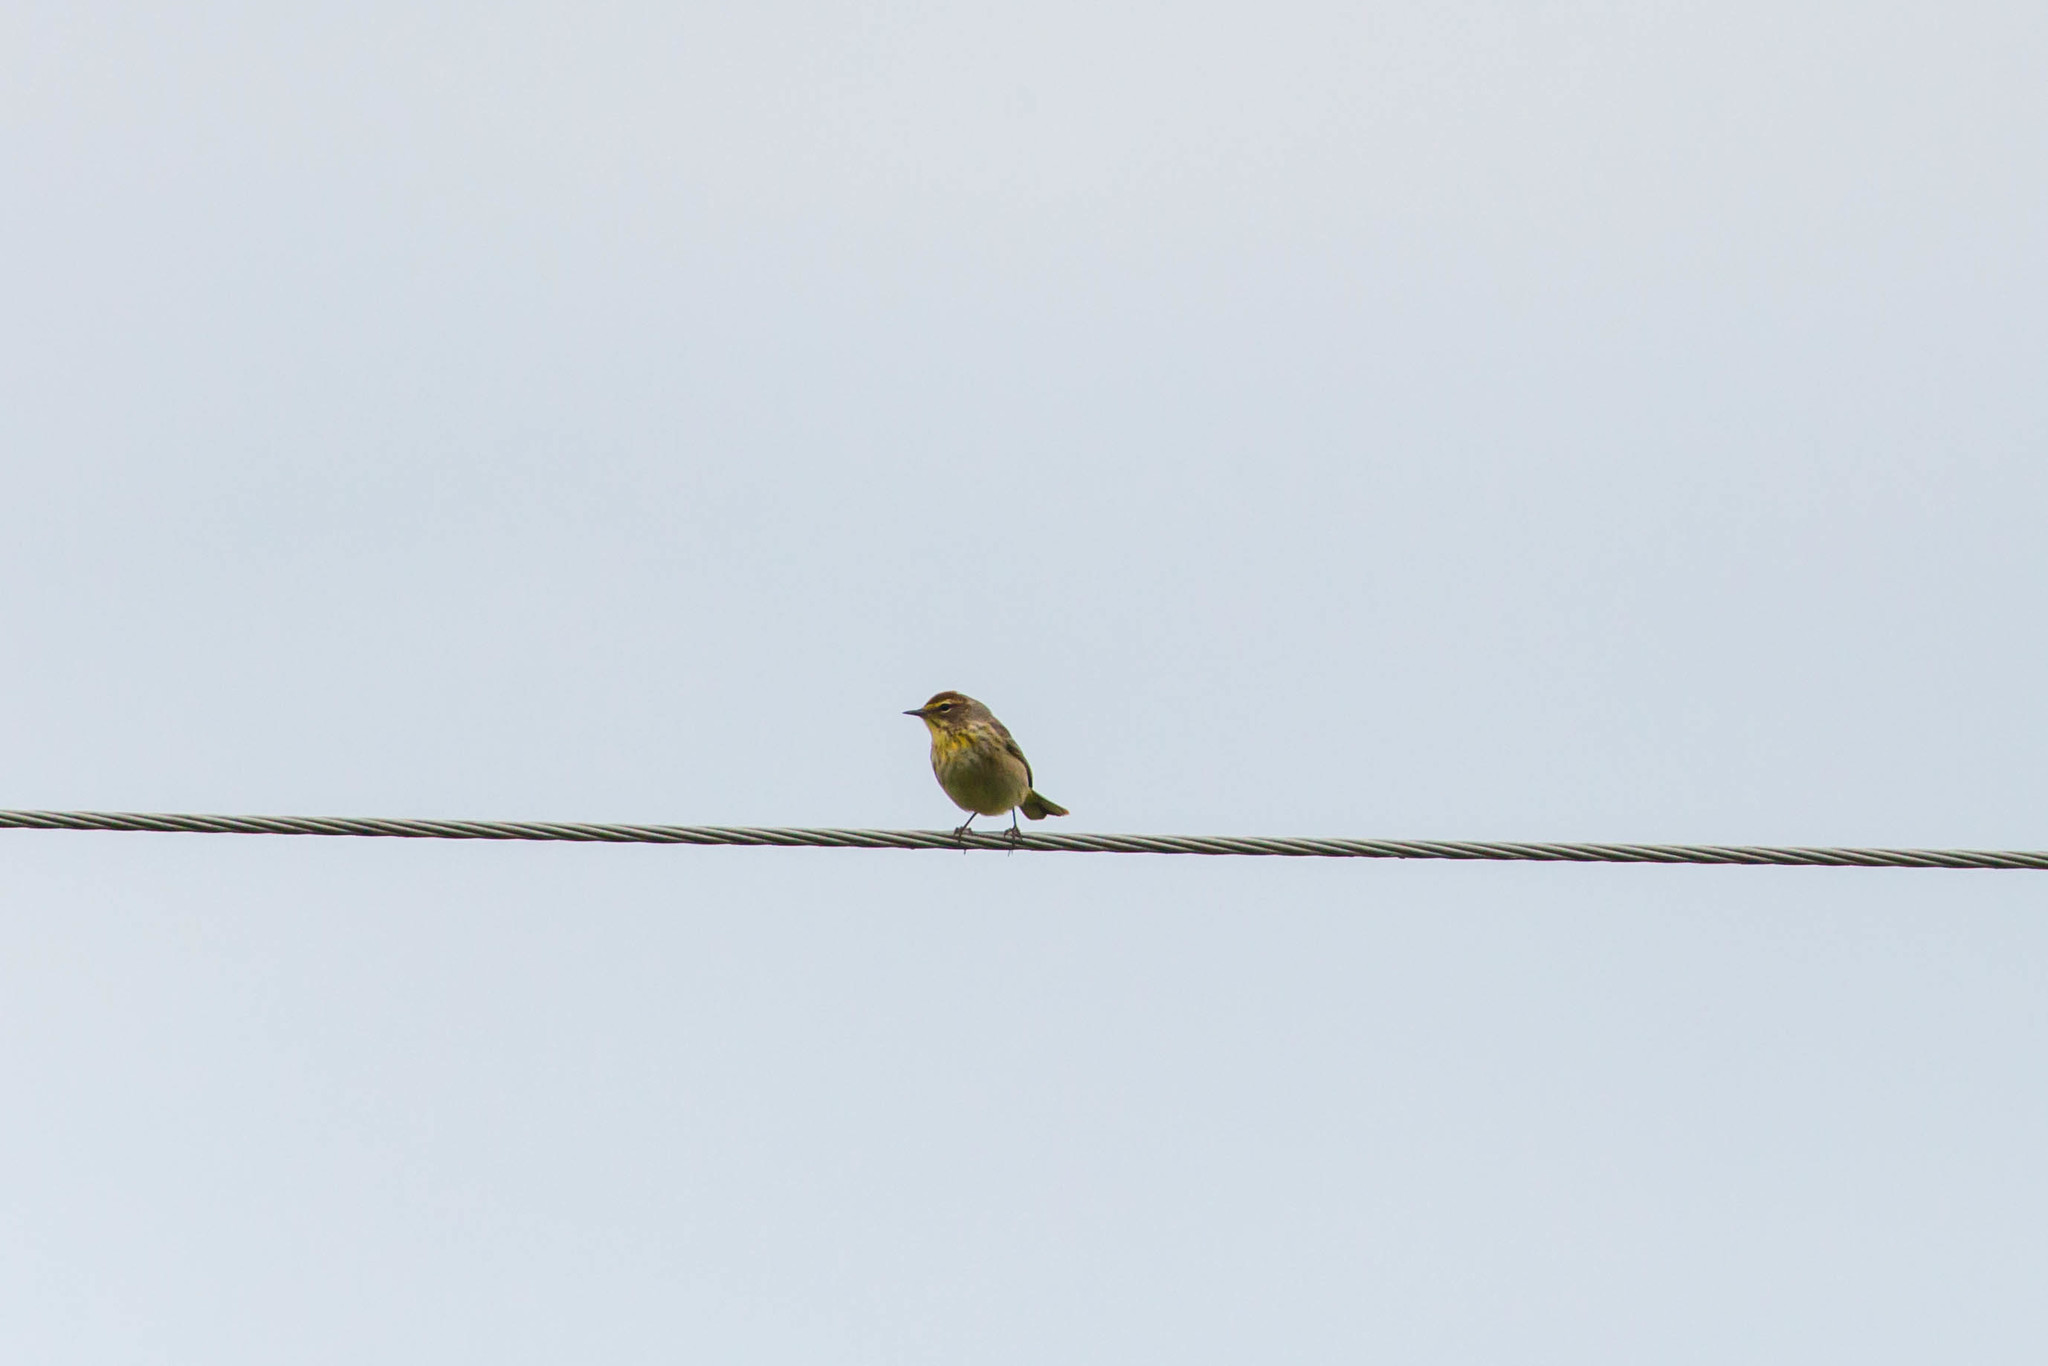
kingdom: Animalia
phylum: Chordata
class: Aves
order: Passeriformes
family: Parulidae
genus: Setophaga
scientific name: Setophaga palmarum
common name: Palm warbler
